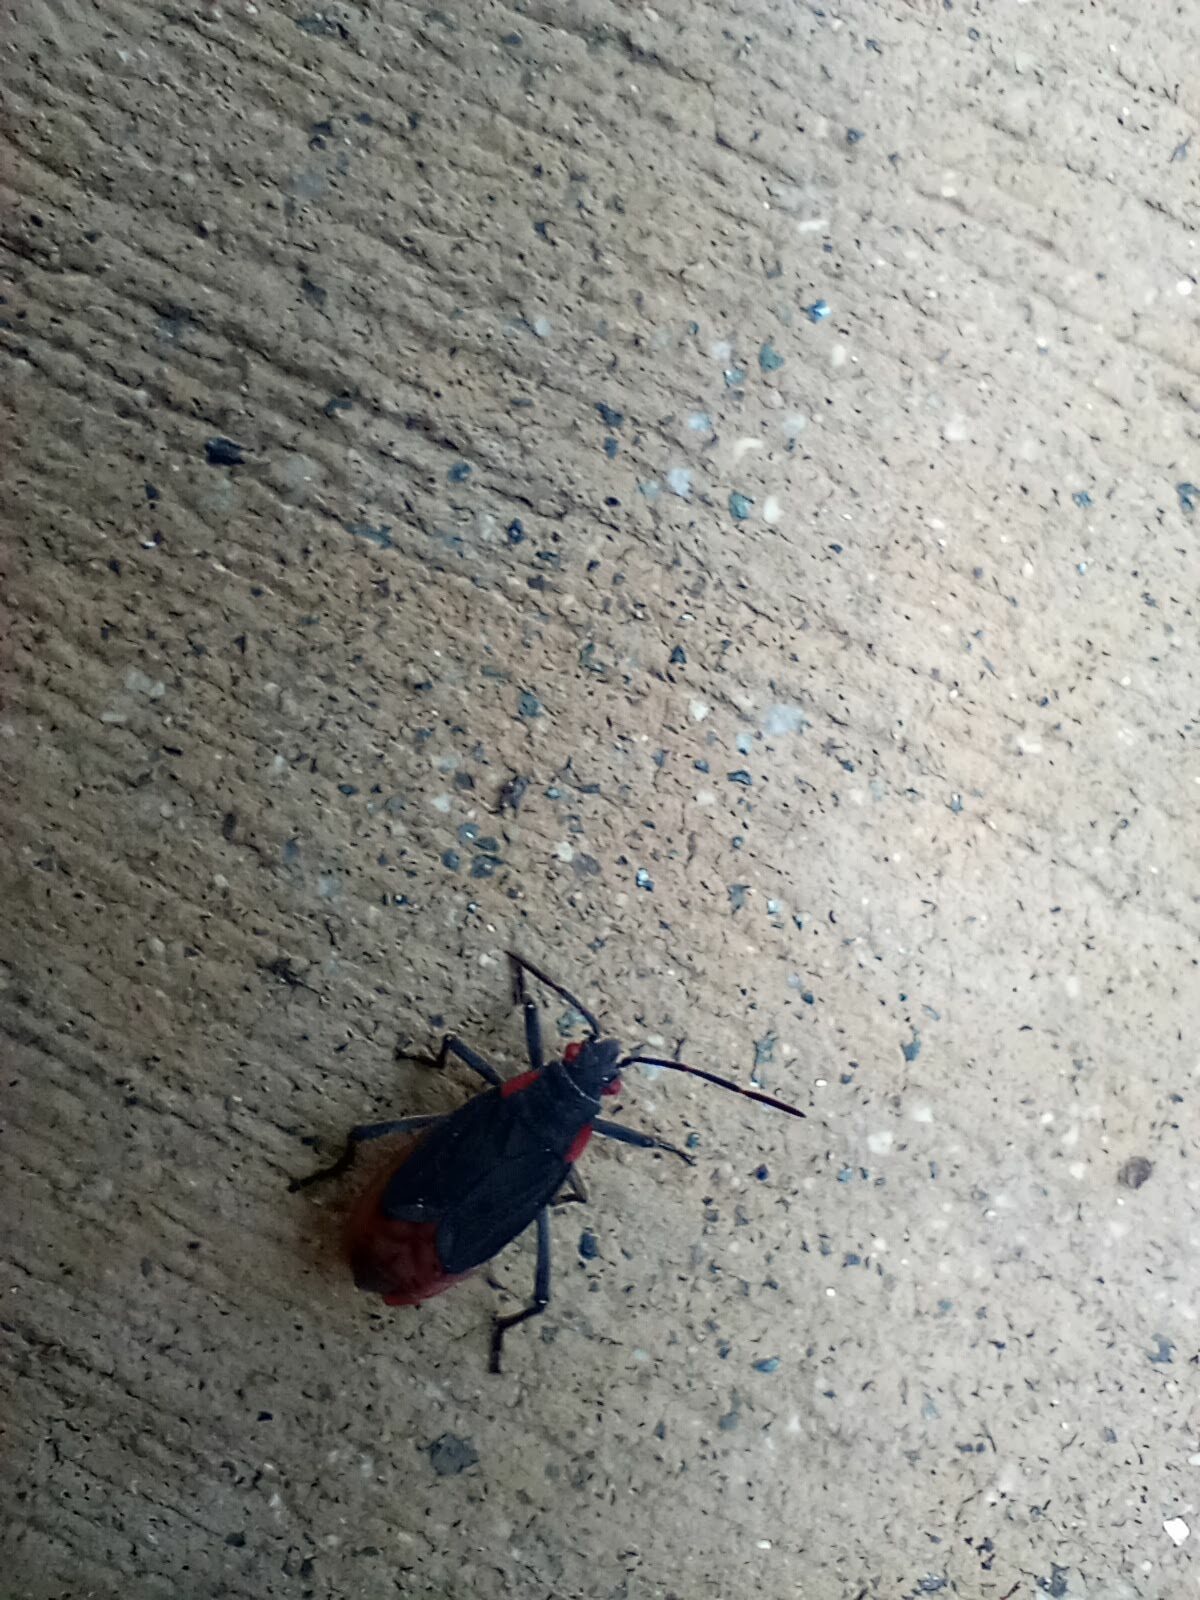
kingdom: Animalia
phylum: Arthropoda
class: Insecta
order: Hemiptera
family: Rhopalidae
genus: Jadera
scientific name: Jadera haematoloma
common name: Red-shouldered bug
